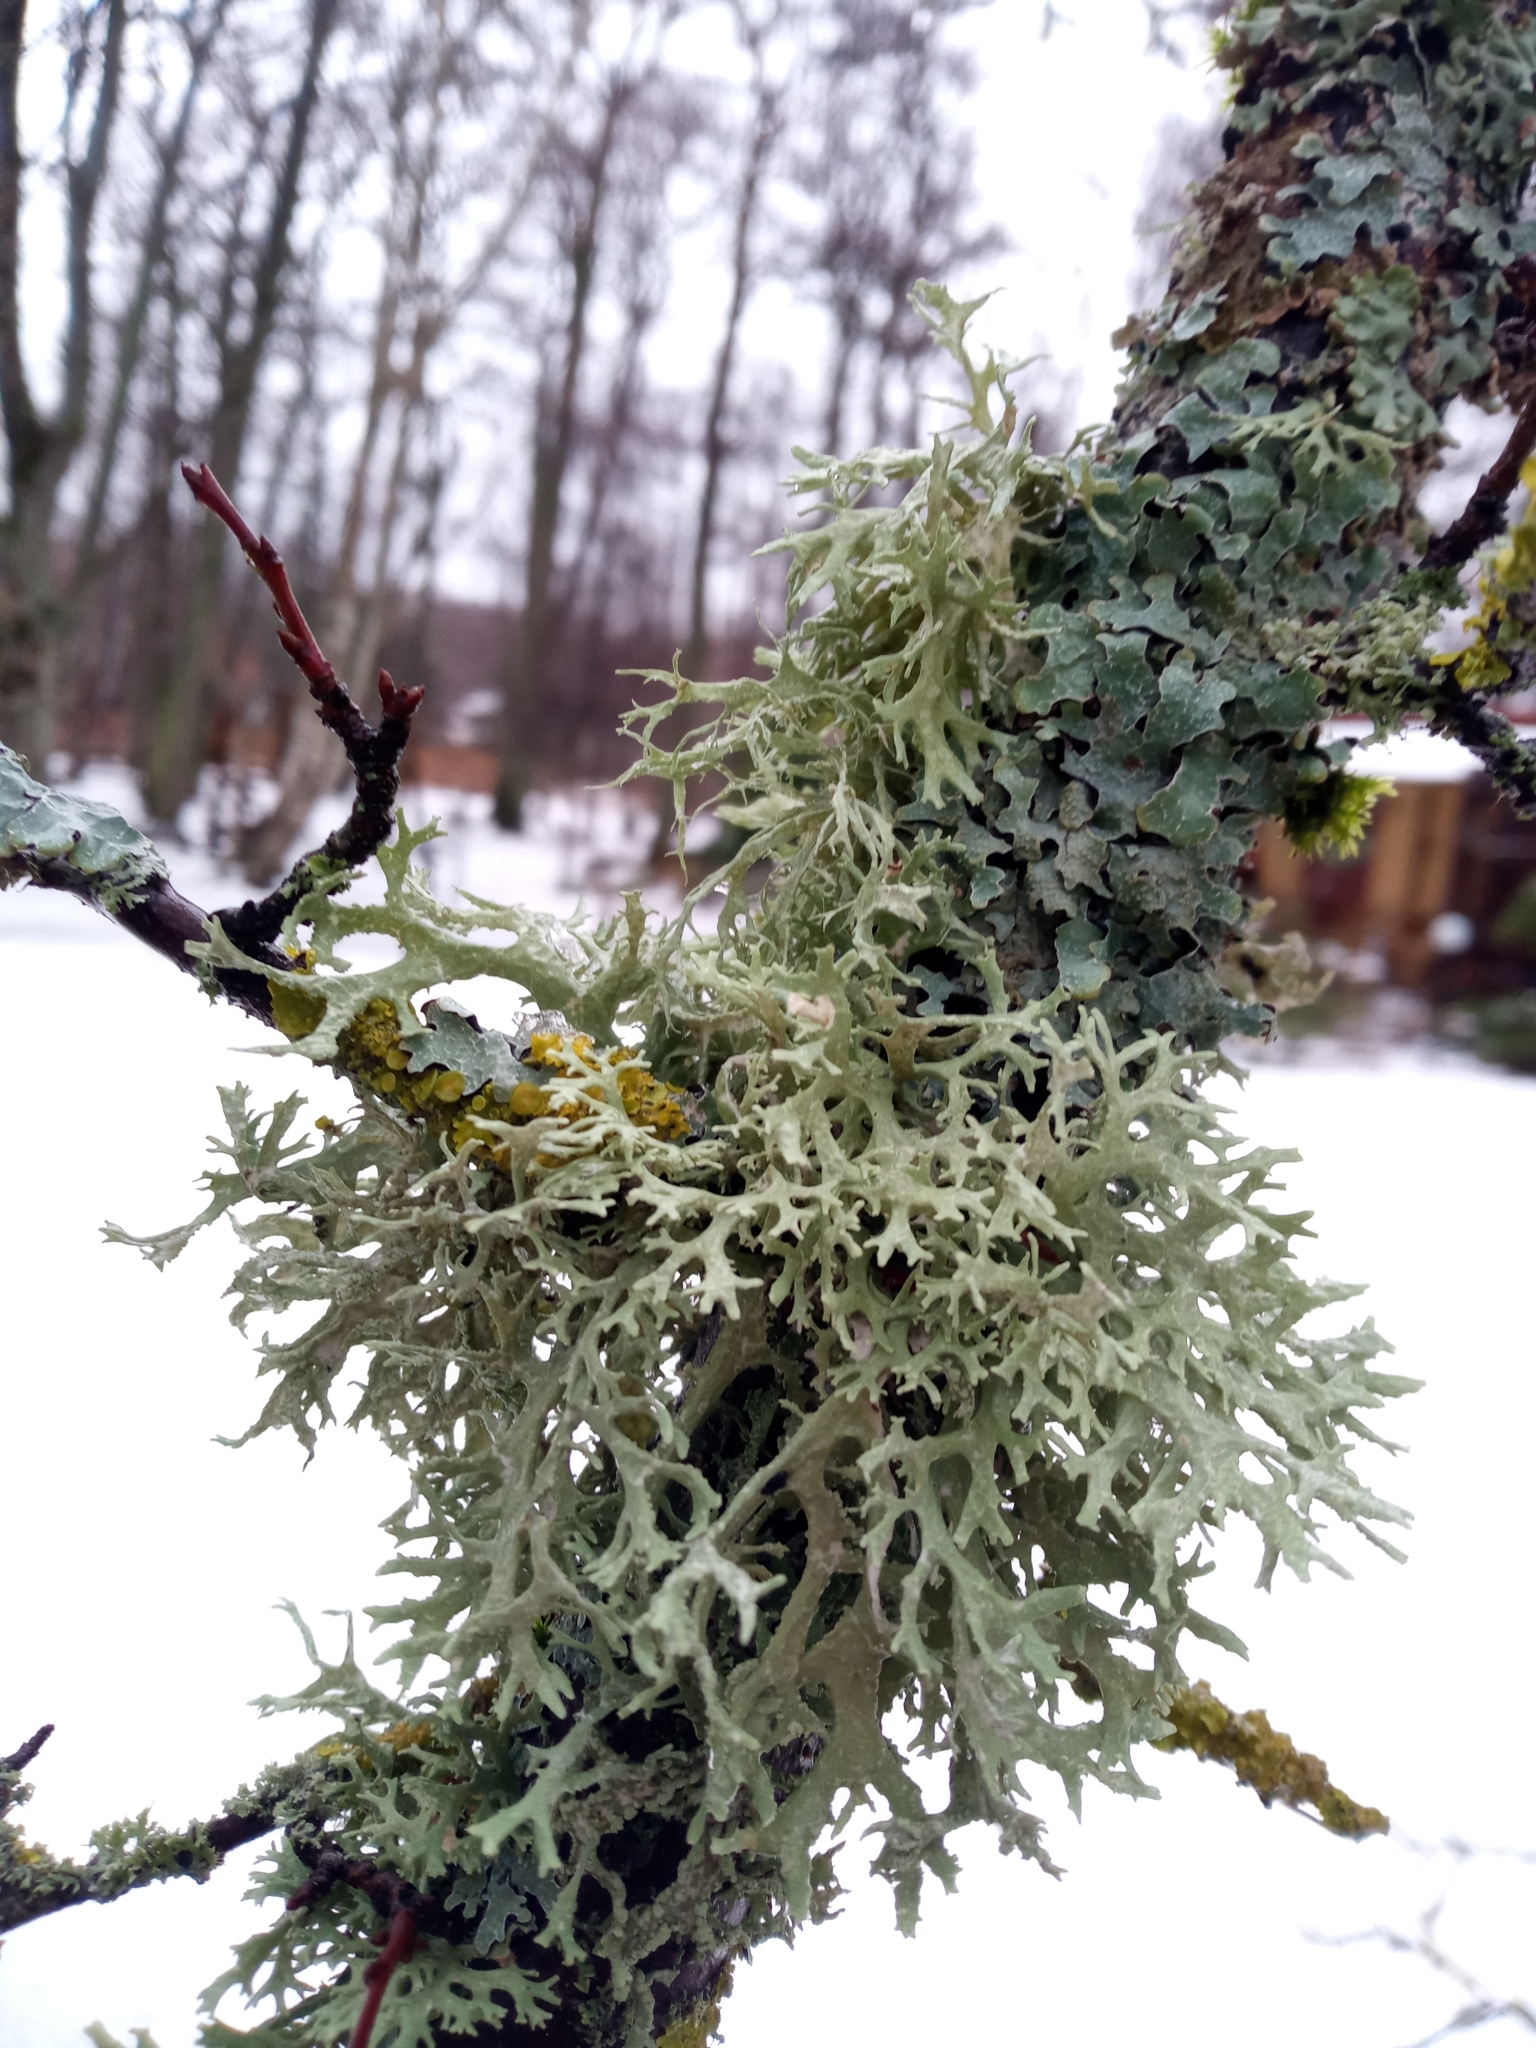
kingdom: Fungi
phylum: Ascomycota
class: Lecanoromycetes
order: Lecanorales
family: Parmeliaceae
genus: Evernia
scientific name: Evernia prunastri
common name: Oak moss
